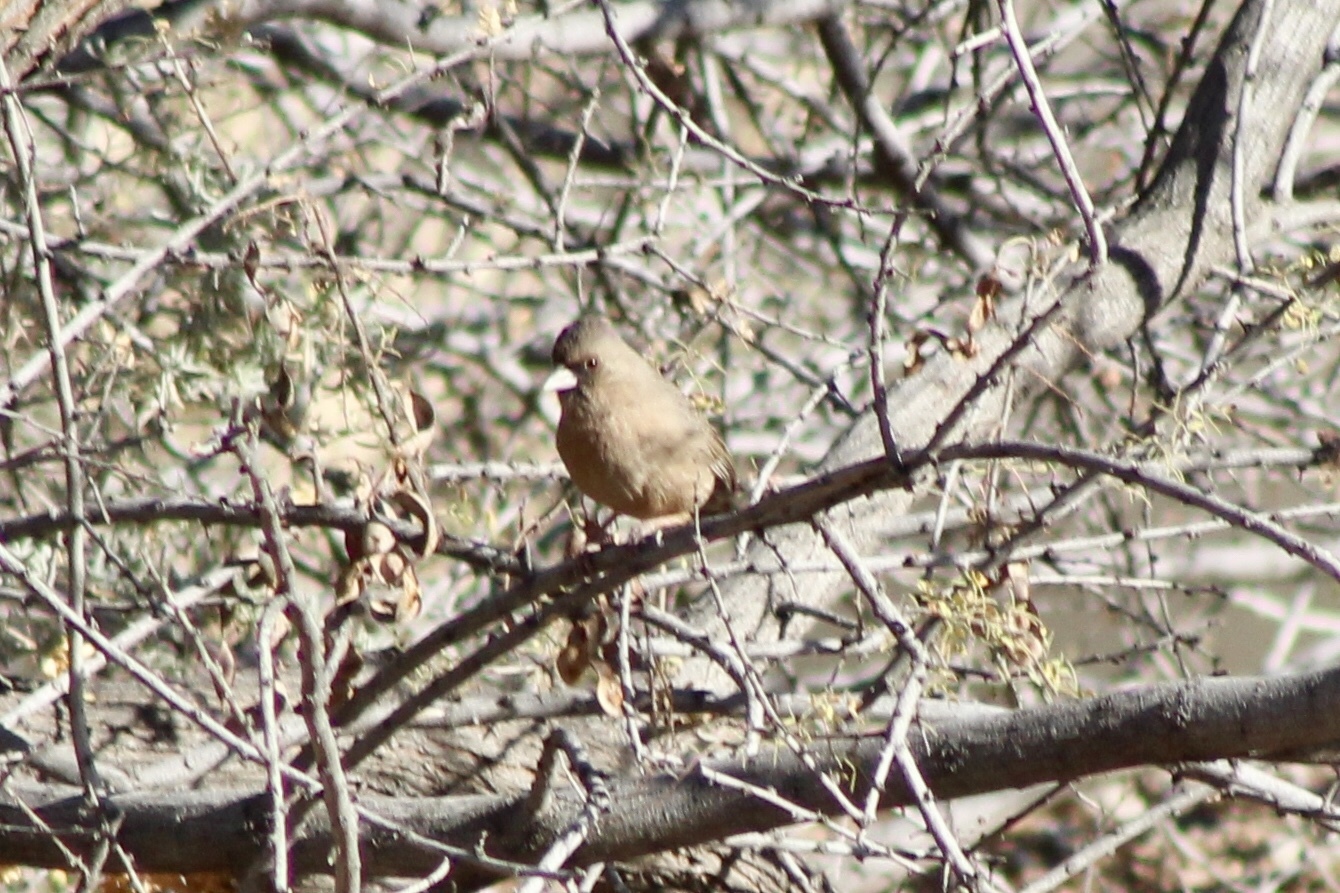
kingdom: Animalia
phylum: Chordata
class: Aves
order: Passeriformes
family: Passerellidae
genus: Melozone
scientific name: Melozone aberti
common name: Abert's towhee
